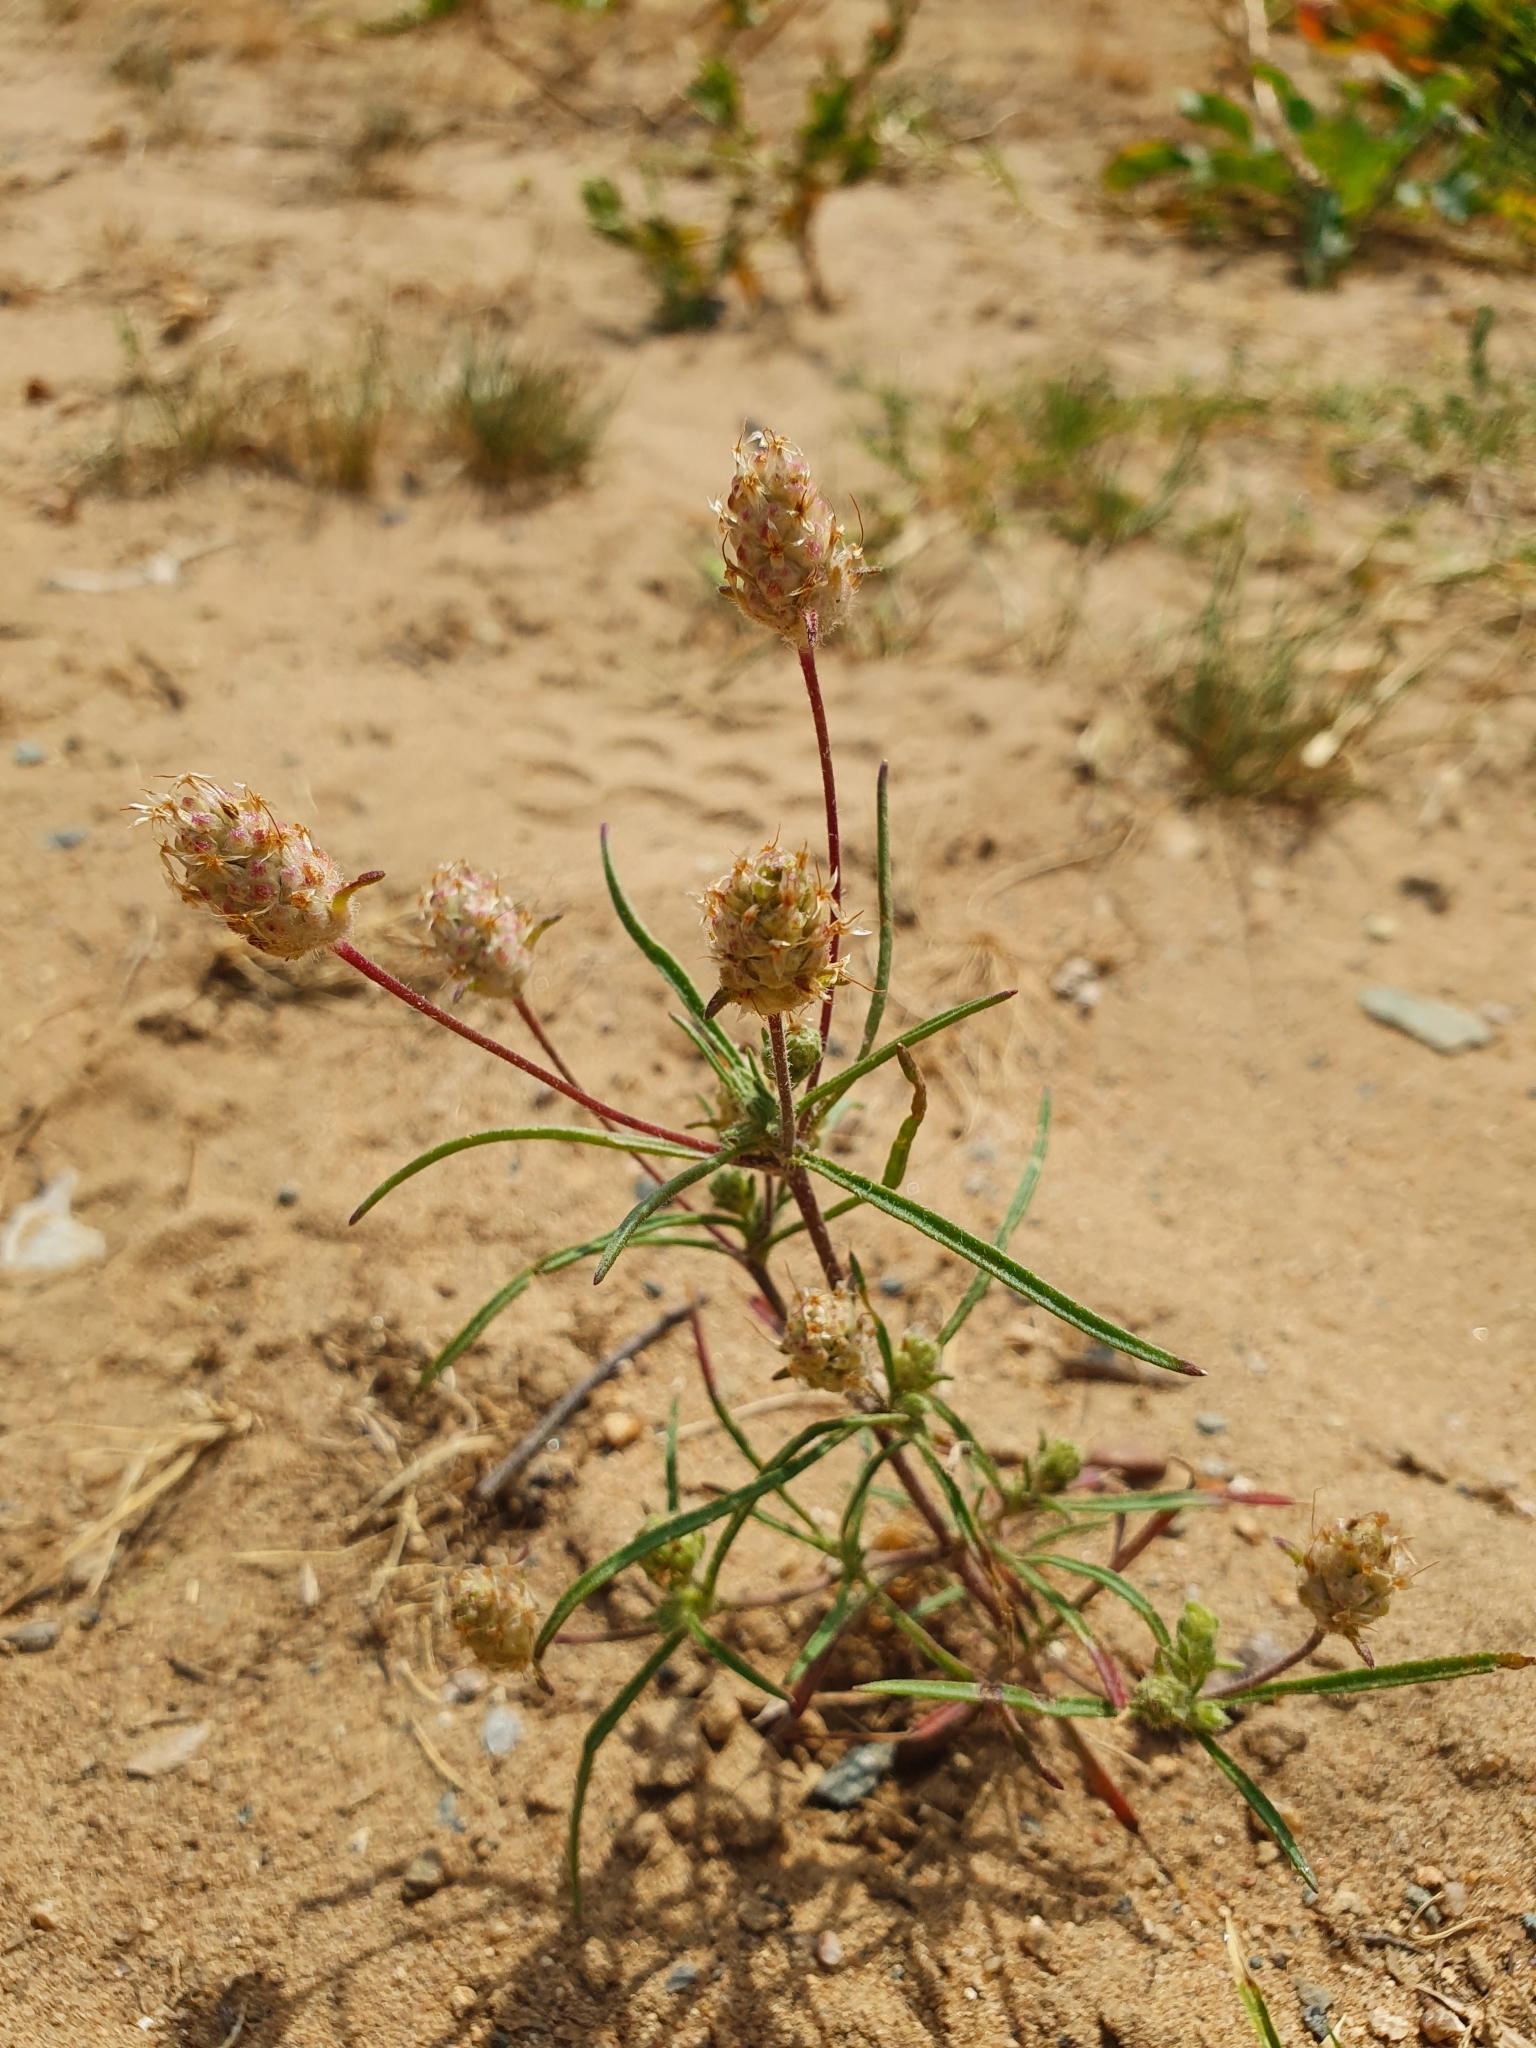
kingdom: Plantae
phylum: Tracheophyta
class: Magnoliopsida
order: Lamiales
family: Plantaginaceae
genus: Plantago
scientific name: Plantago arenaria
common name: Branched plantain
